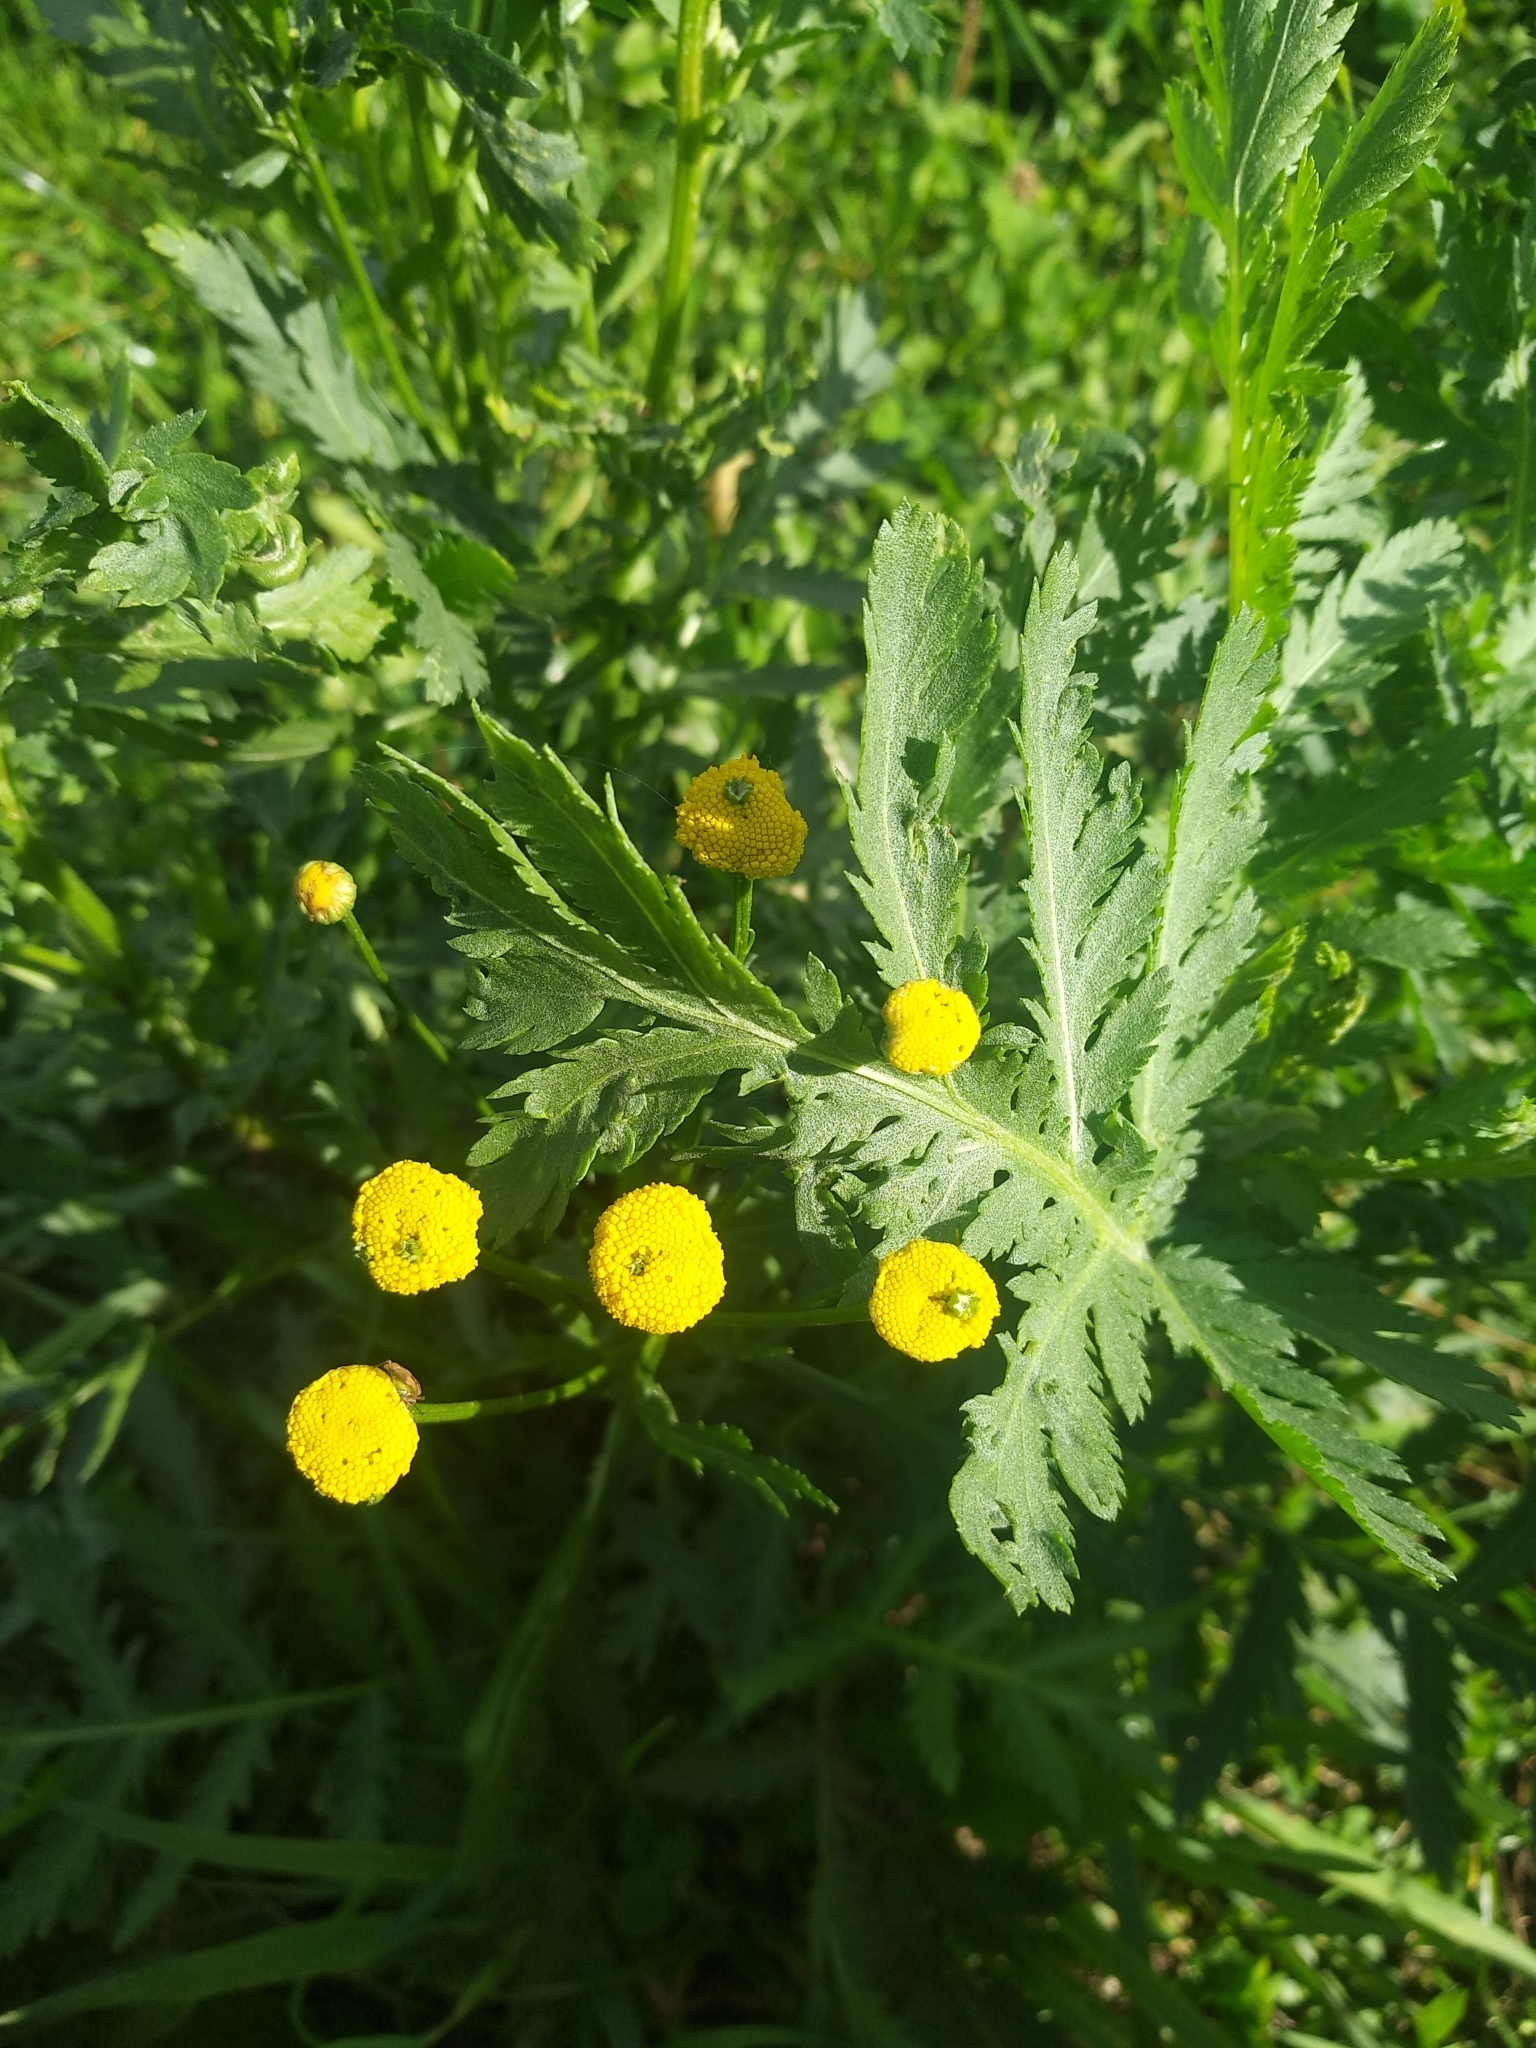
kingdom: Plantae
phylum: Tracheophyta
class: Magnoliopsida
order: Asterales
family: Asteraceae
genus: Tanacetum
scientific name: Tanacetum vulgare
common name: Common tansy
